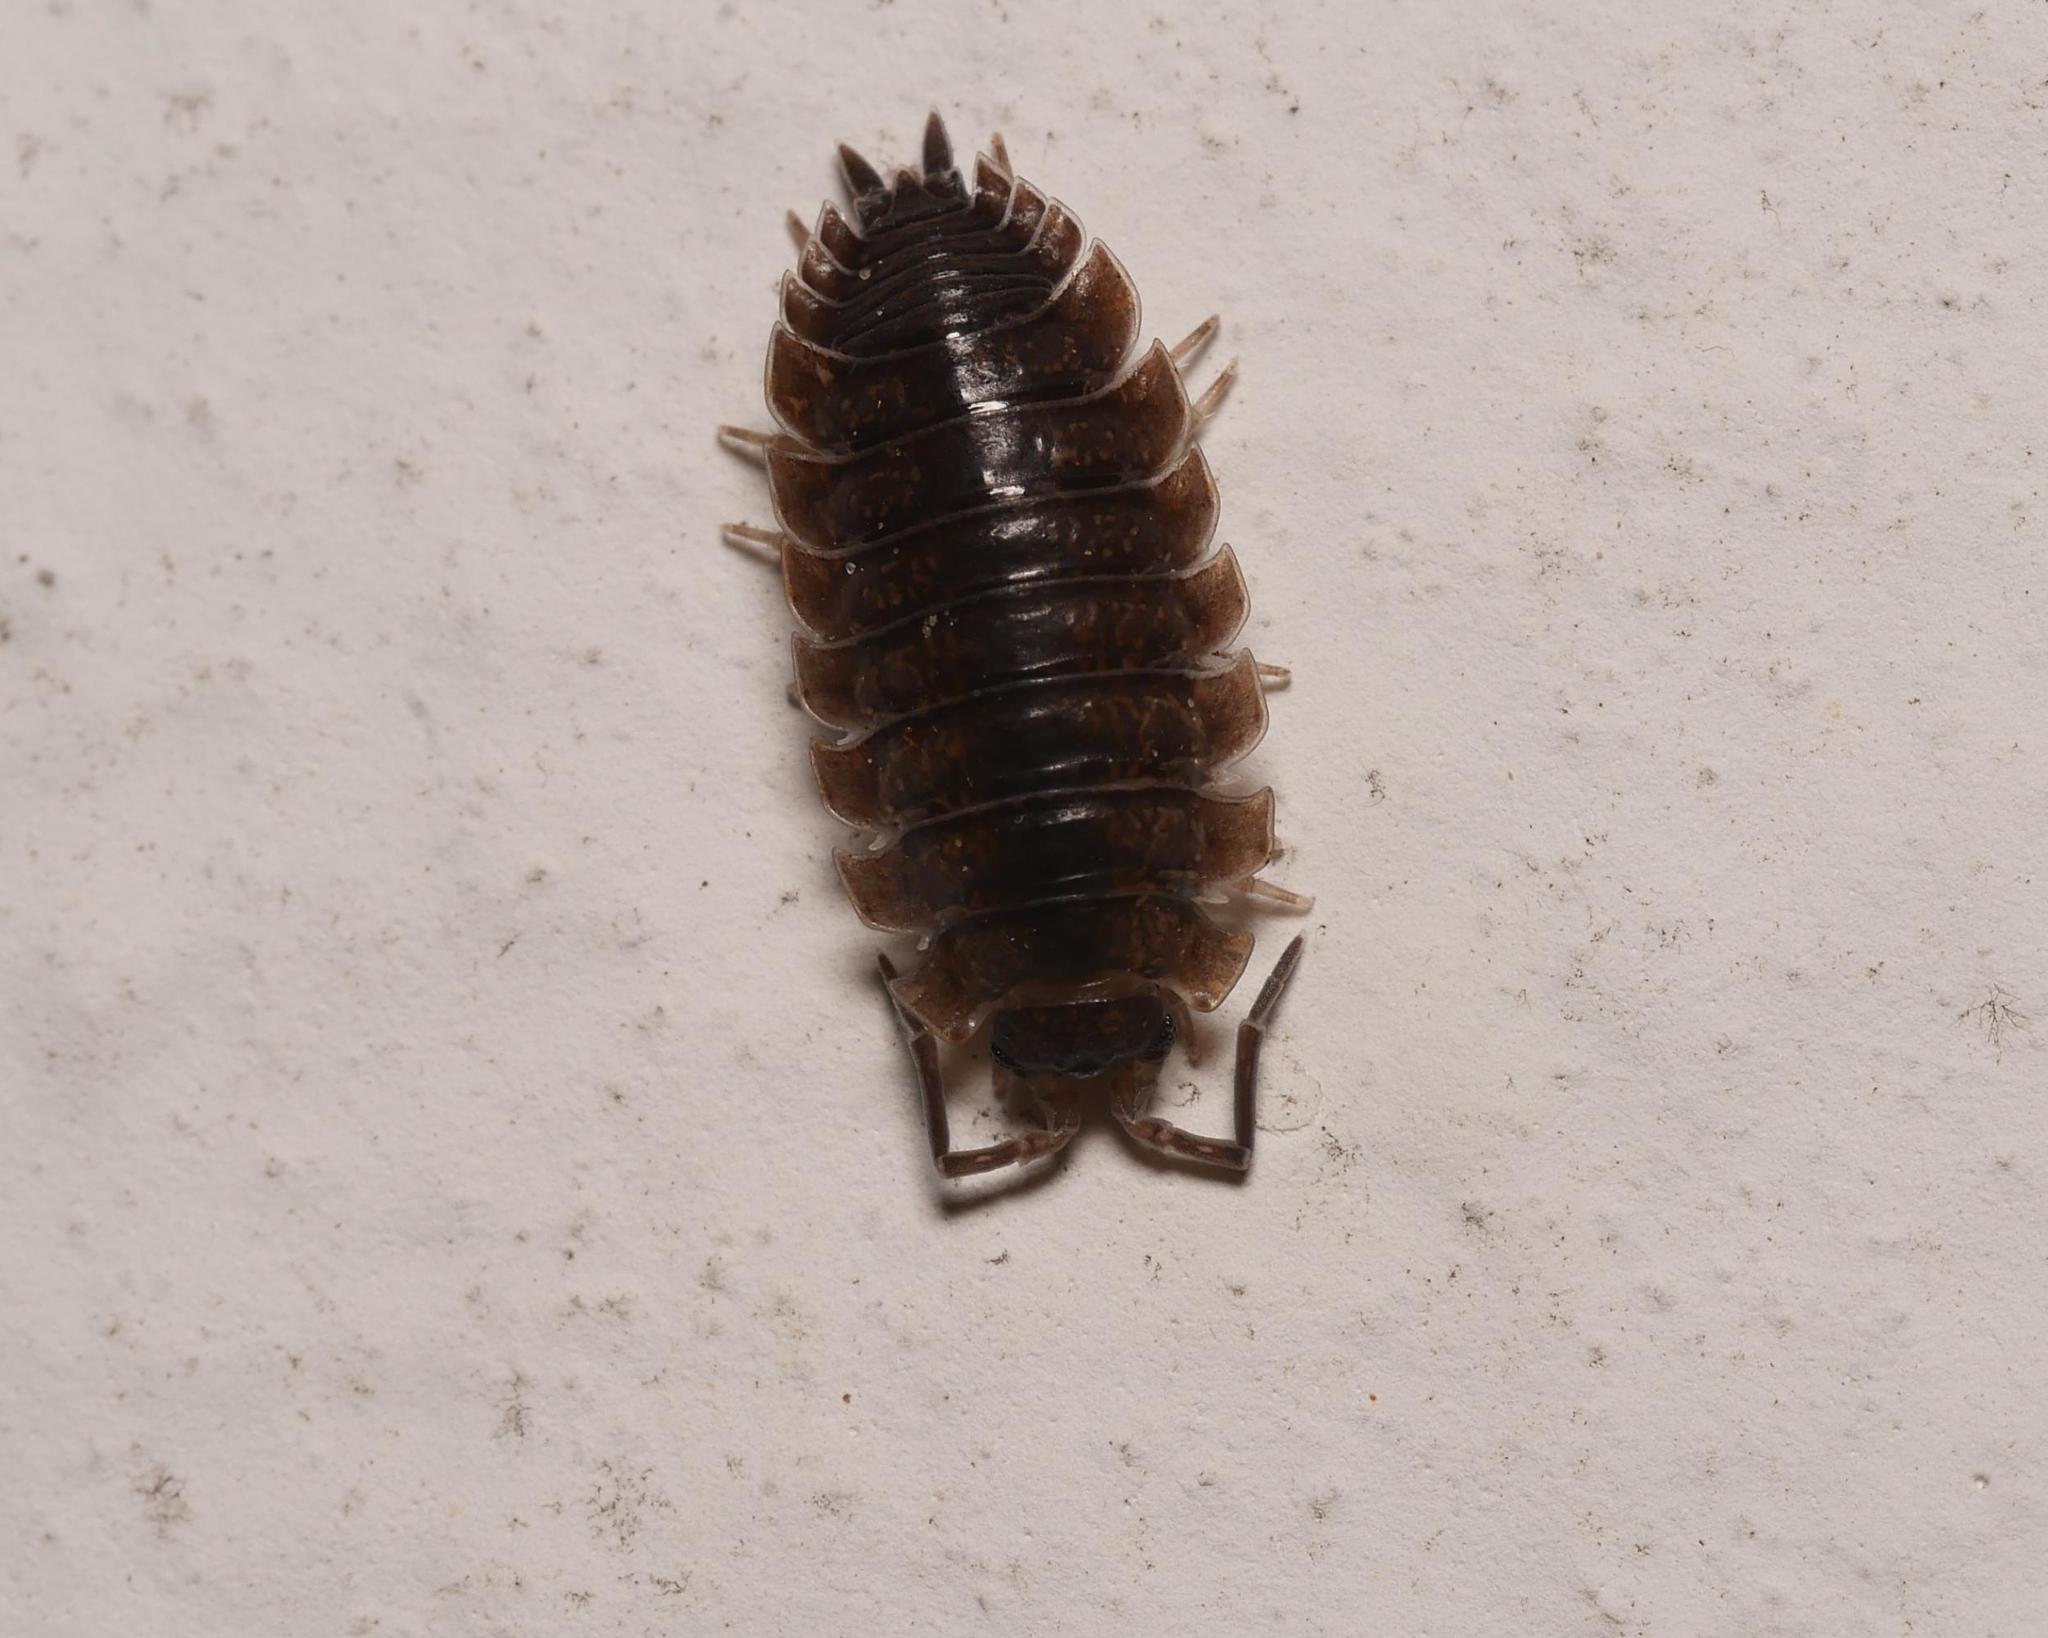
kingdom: Animalia
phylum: Arthropoda
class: Malacostraca
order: Isopoda
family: Porcellionidae
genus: Porcellio
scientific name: Porcellio scaber
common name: Common rough woodlouse
